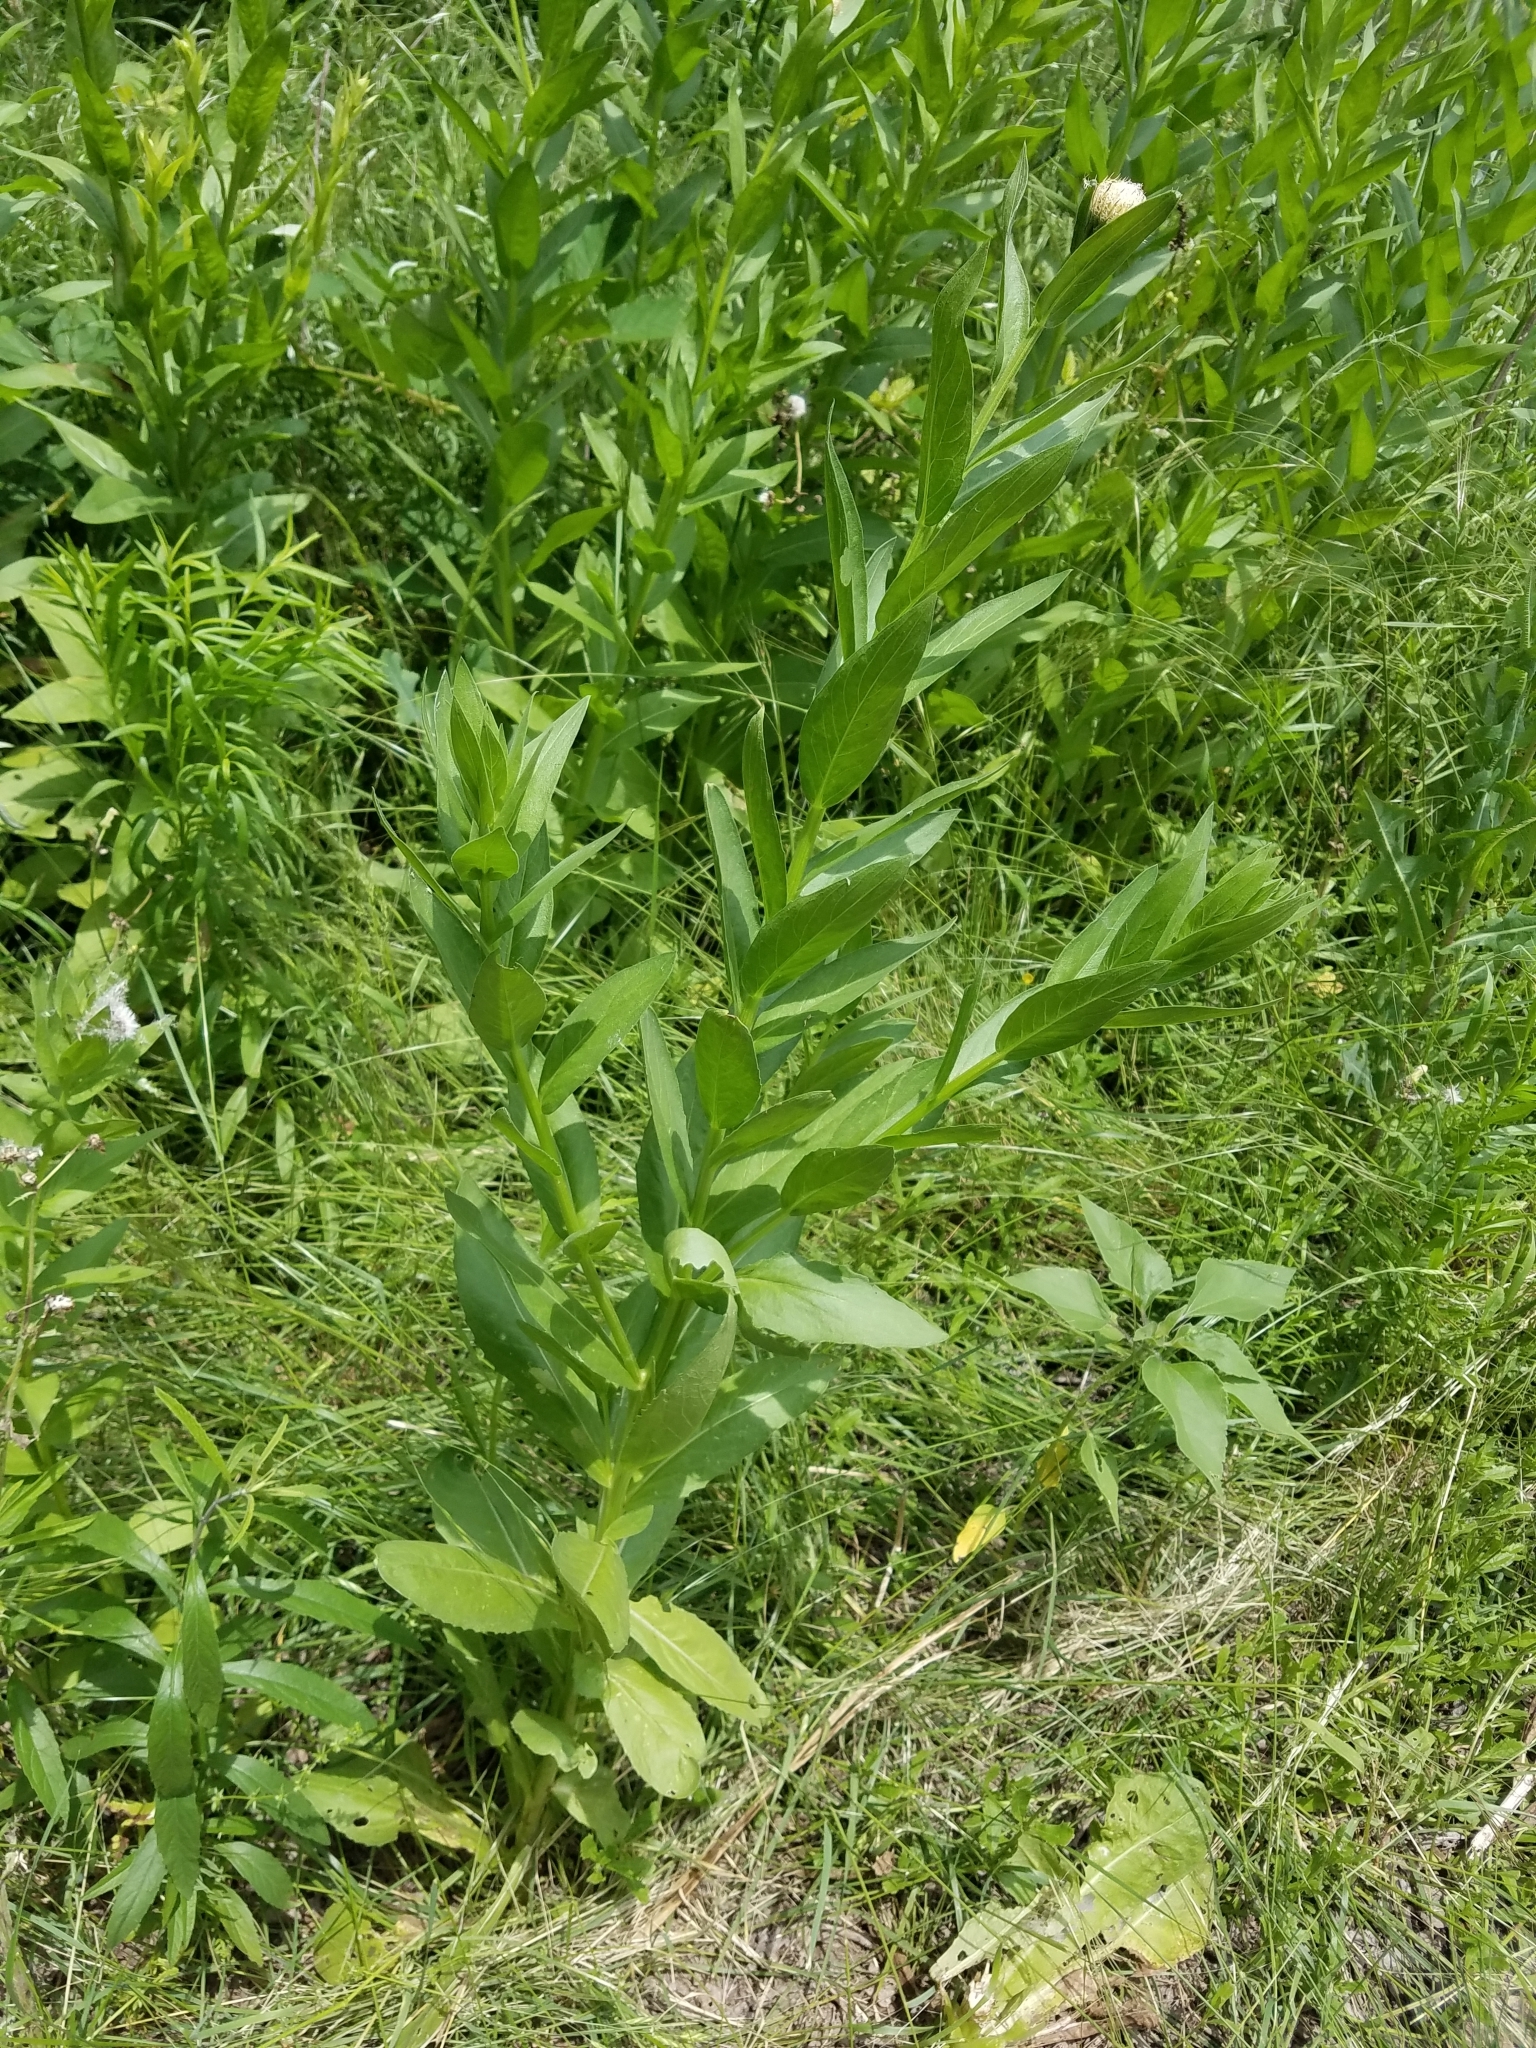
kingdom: Plantae
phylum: Tracheophyta
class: Magnoliopsida
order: Asterales
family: Asteraceae
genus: Plectocephalus
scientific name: Plectocephalus americanus
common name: American basket-flower
